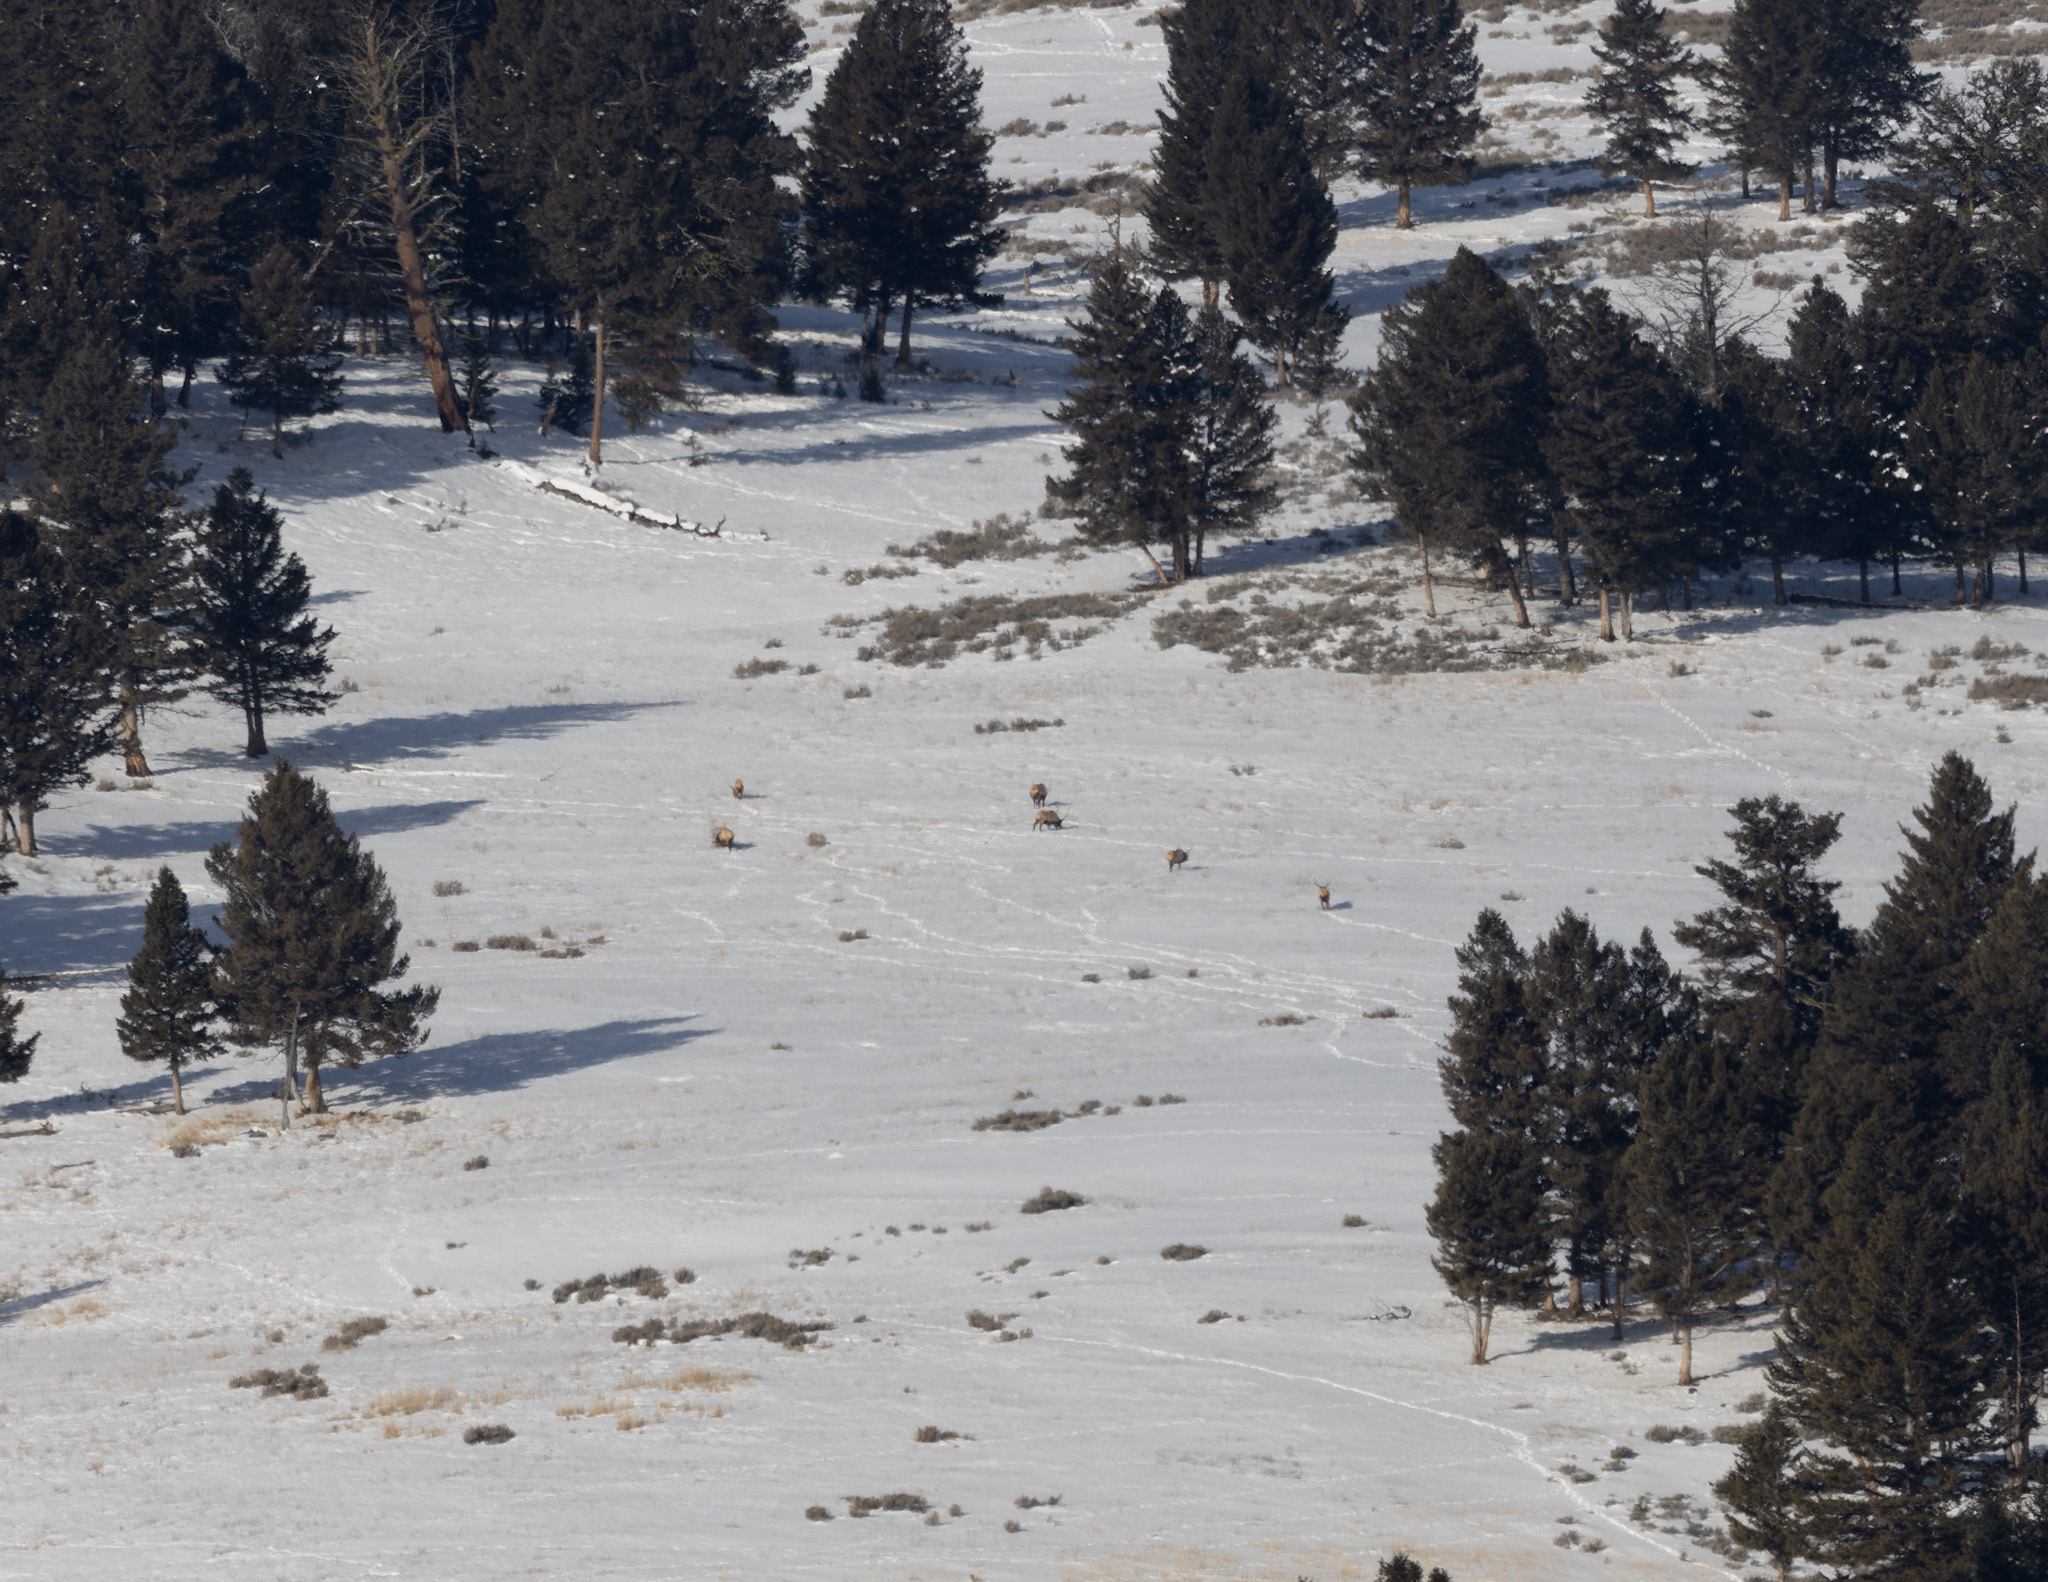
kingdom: Animalia
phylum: Chordata
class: Mammalia
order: Artiodactyla
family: Cervidae
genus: Cervus
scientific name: Cervus elaphus
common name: Red deer
